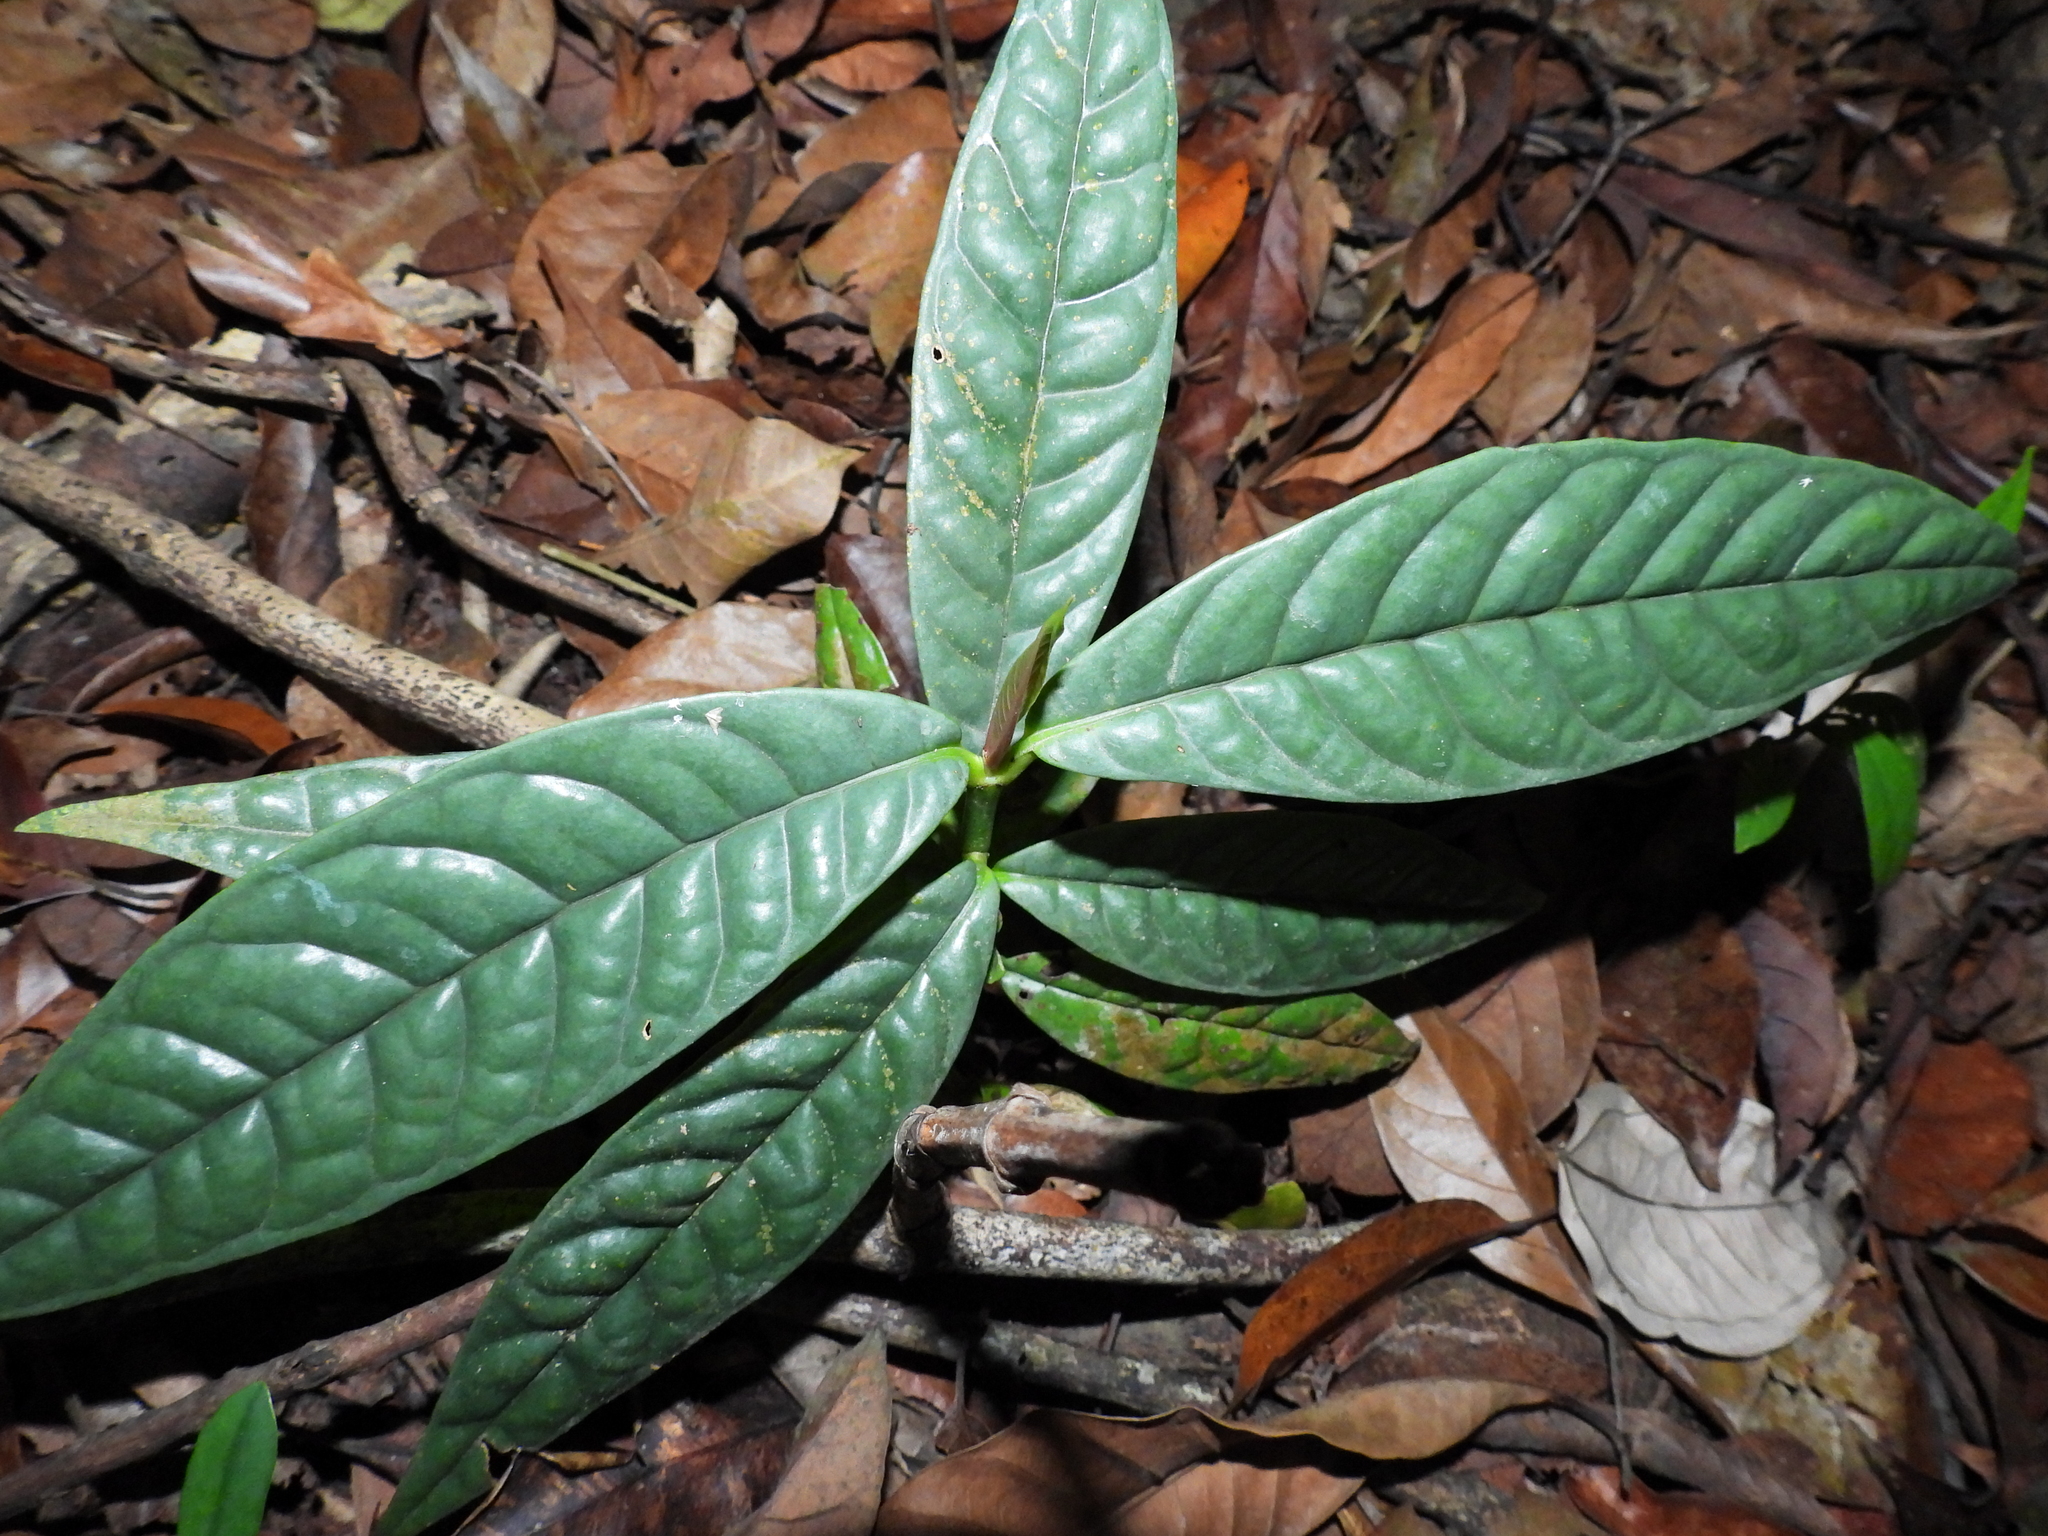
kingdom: Plantae
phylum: Tracheophyta
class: Magnoliopsida
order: Malpighiales
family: Clusiaceae
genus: Garcinia
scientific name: Garcinia griffithii
